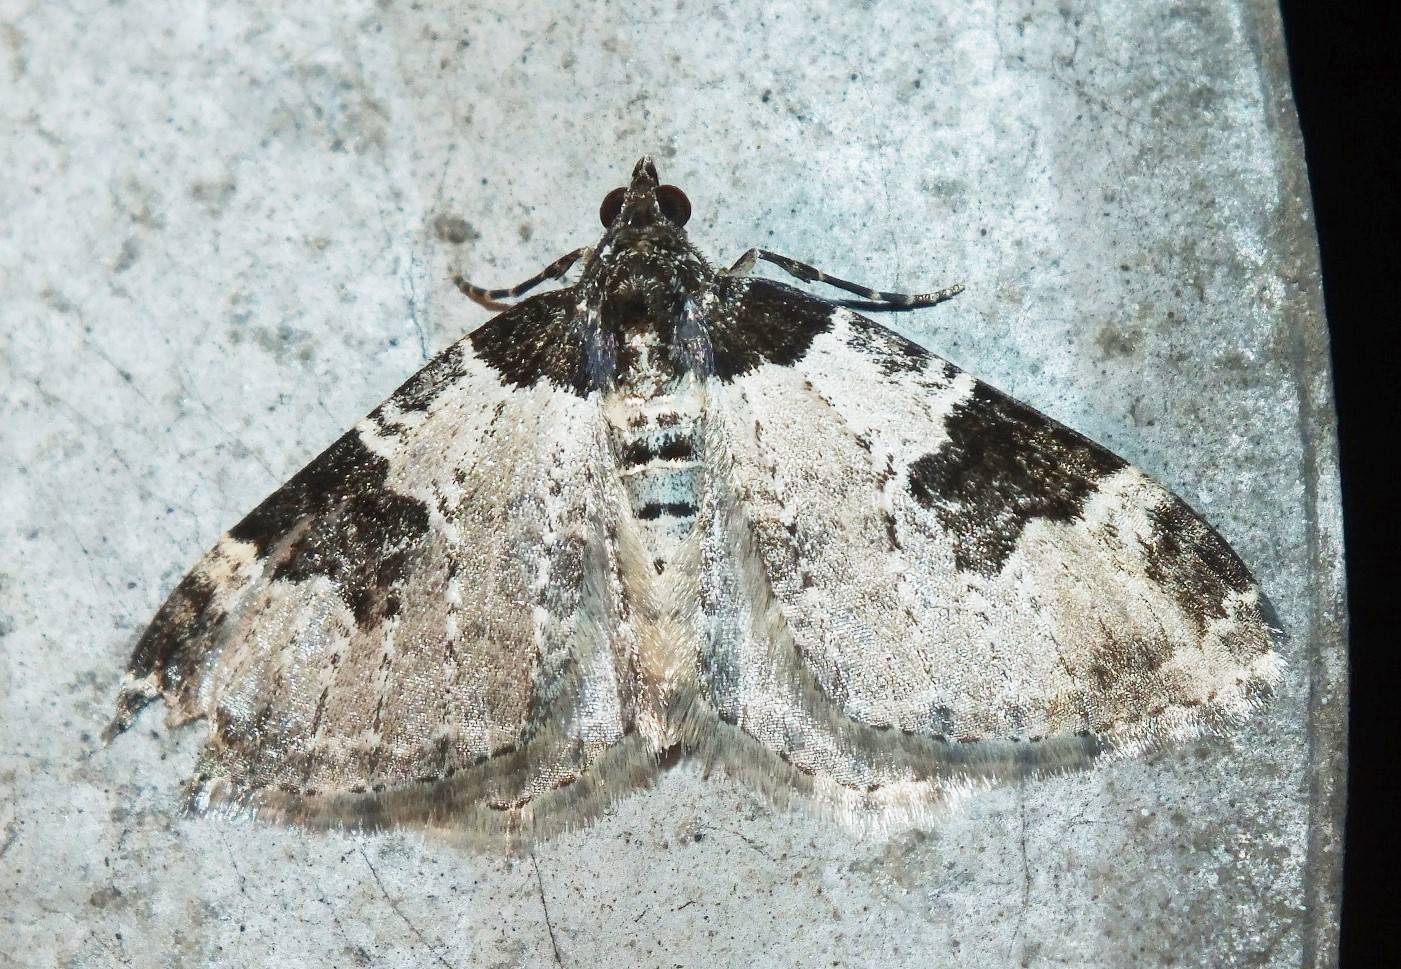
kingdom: Animalia
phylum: Arthropoda
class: Insecta
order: Lepidoptera
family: Geometridae
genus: Xanthorhoe
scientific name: Xanthorhoe fluctuata
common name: Garden carpet
